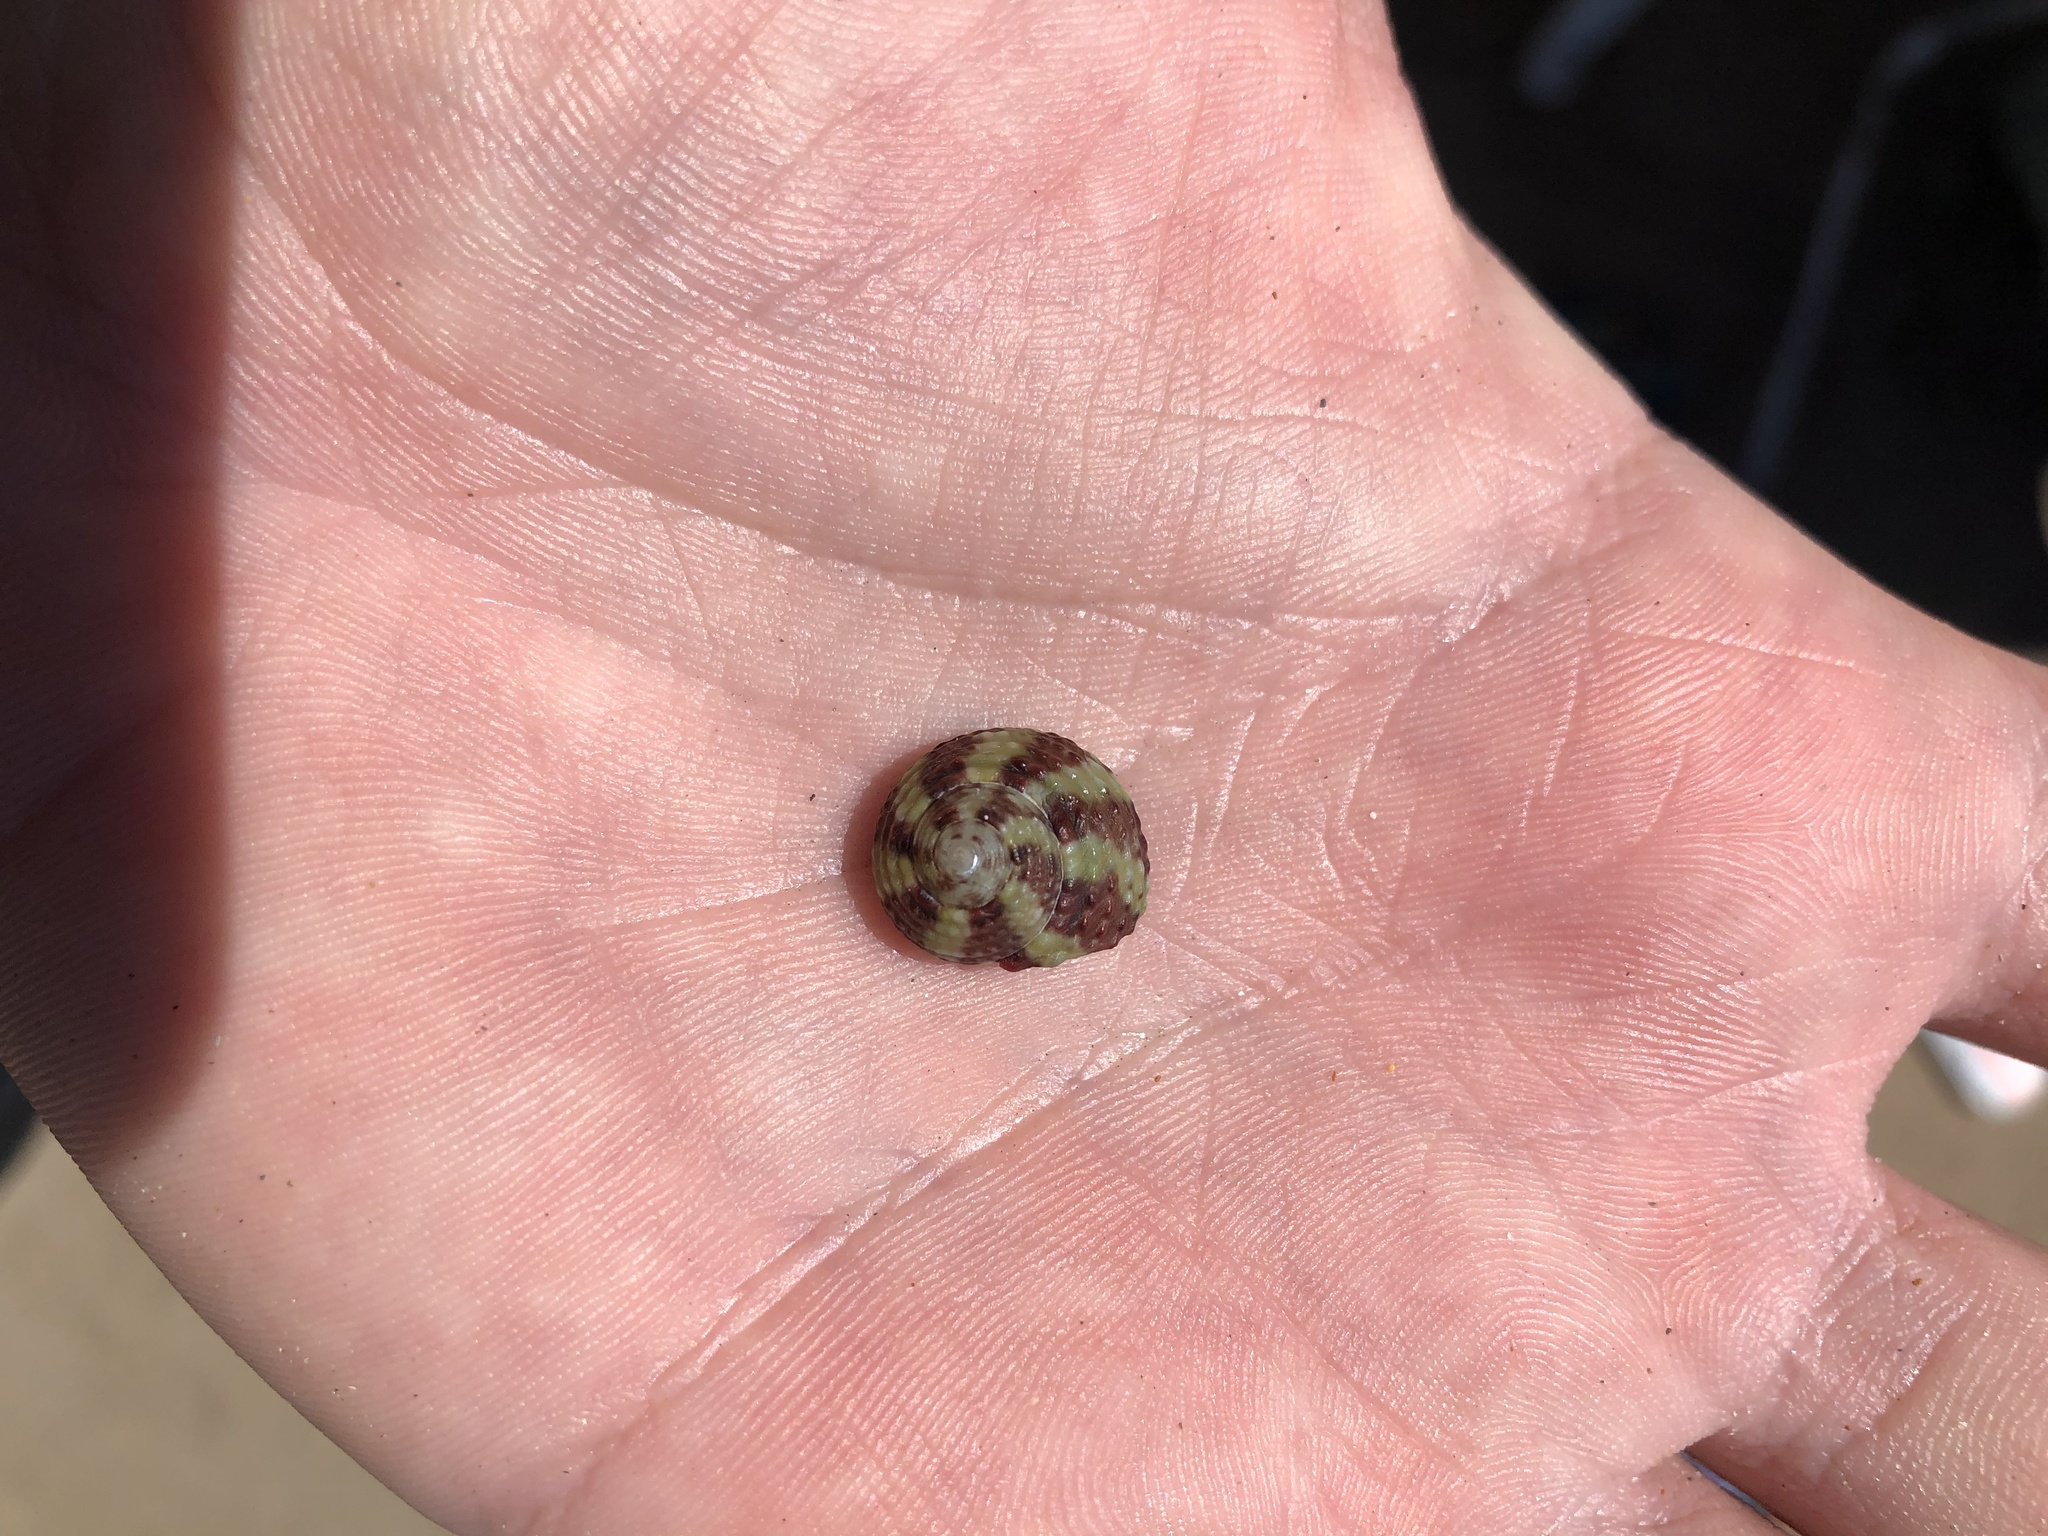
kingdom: Animalia
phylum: Mollusca
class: Gastropoda
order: Trochida
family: Tegulidae
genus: Agathistoma
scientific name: Agathistoma viridulum
